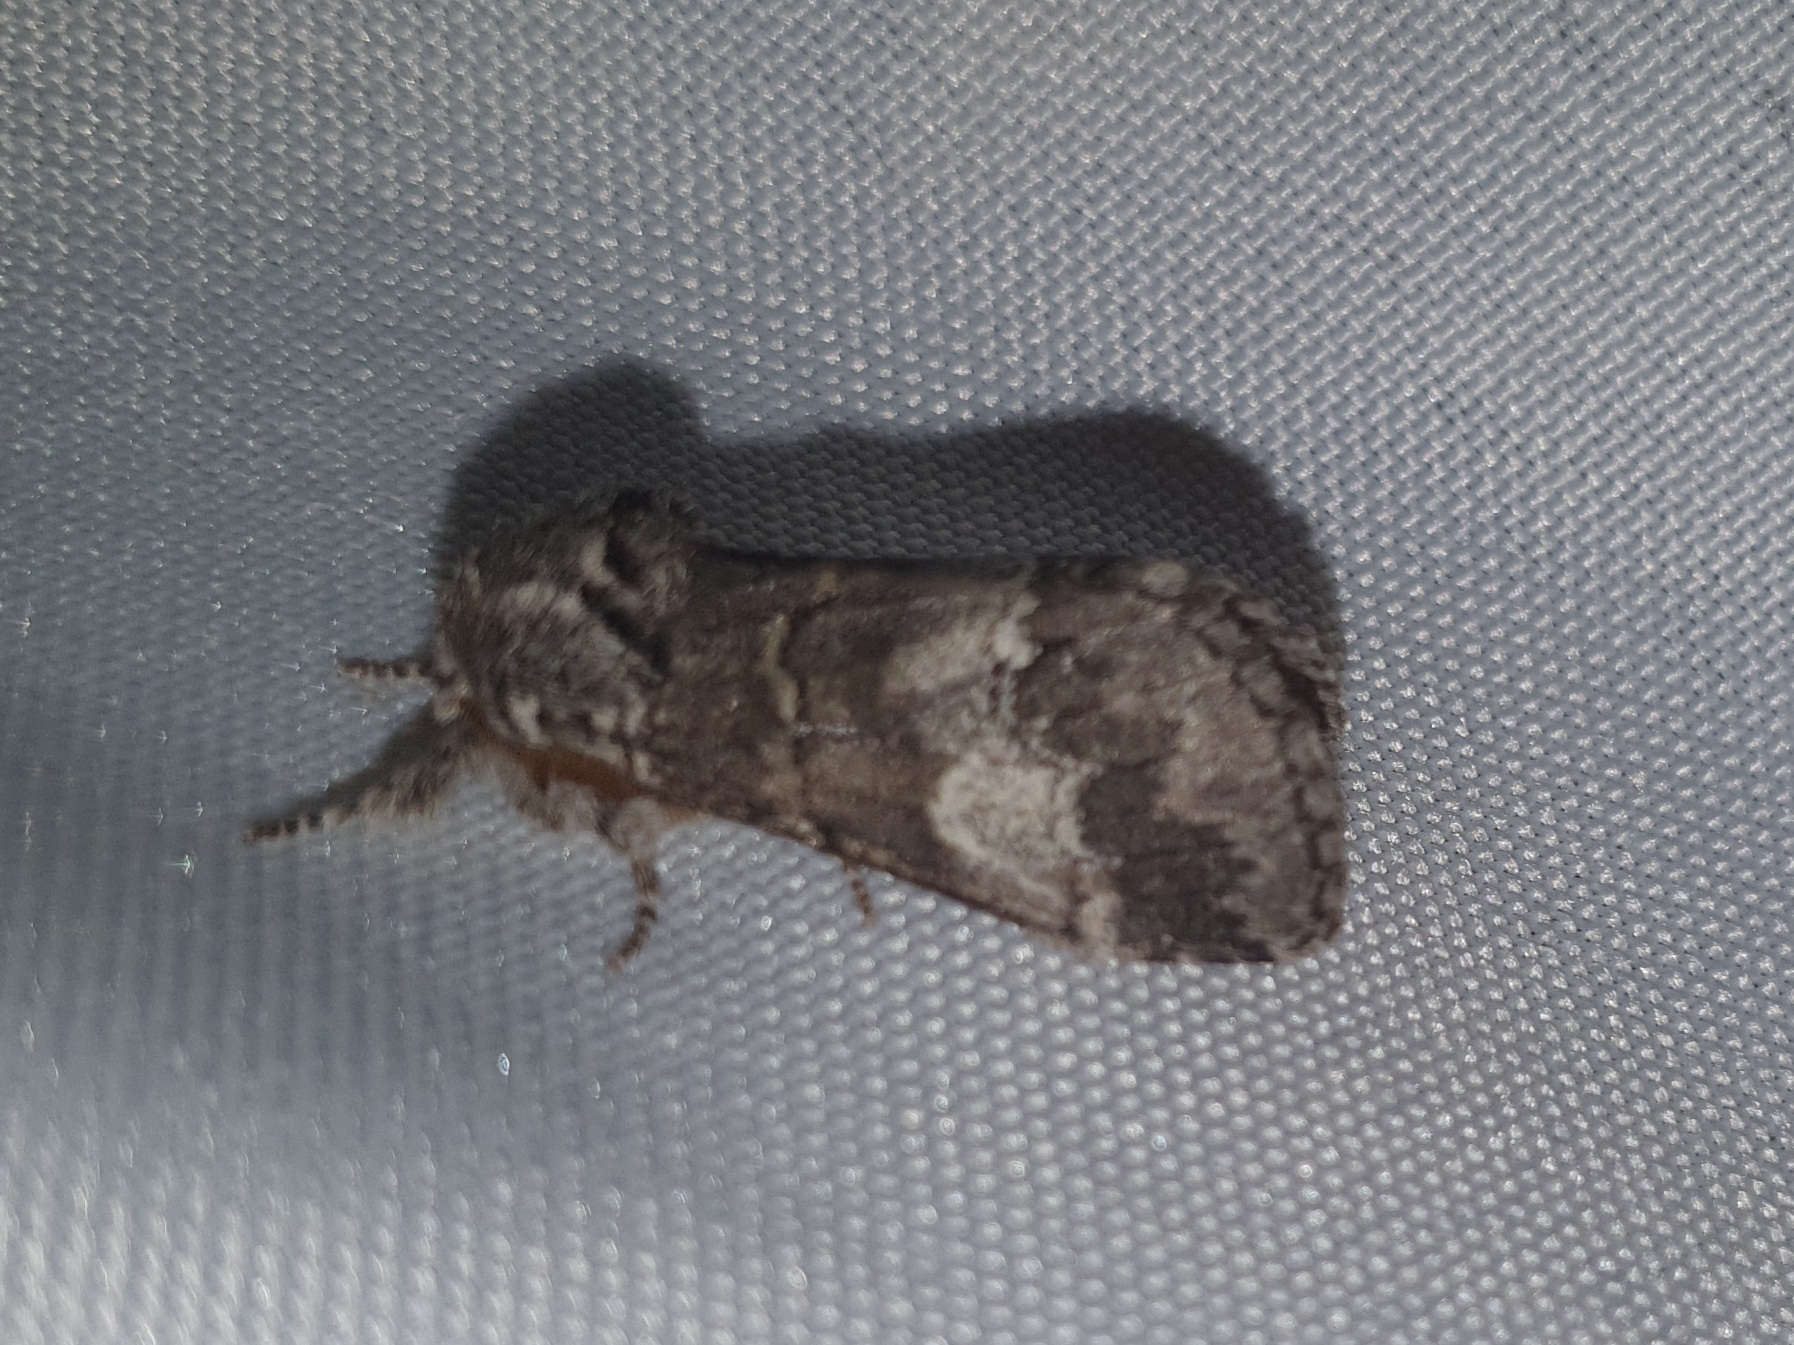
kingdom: Animalia
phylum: Arthropoda
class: Insecta
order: Lepidoptera
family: Notodontidae
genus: Drymonia
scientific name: Drymonia querna
